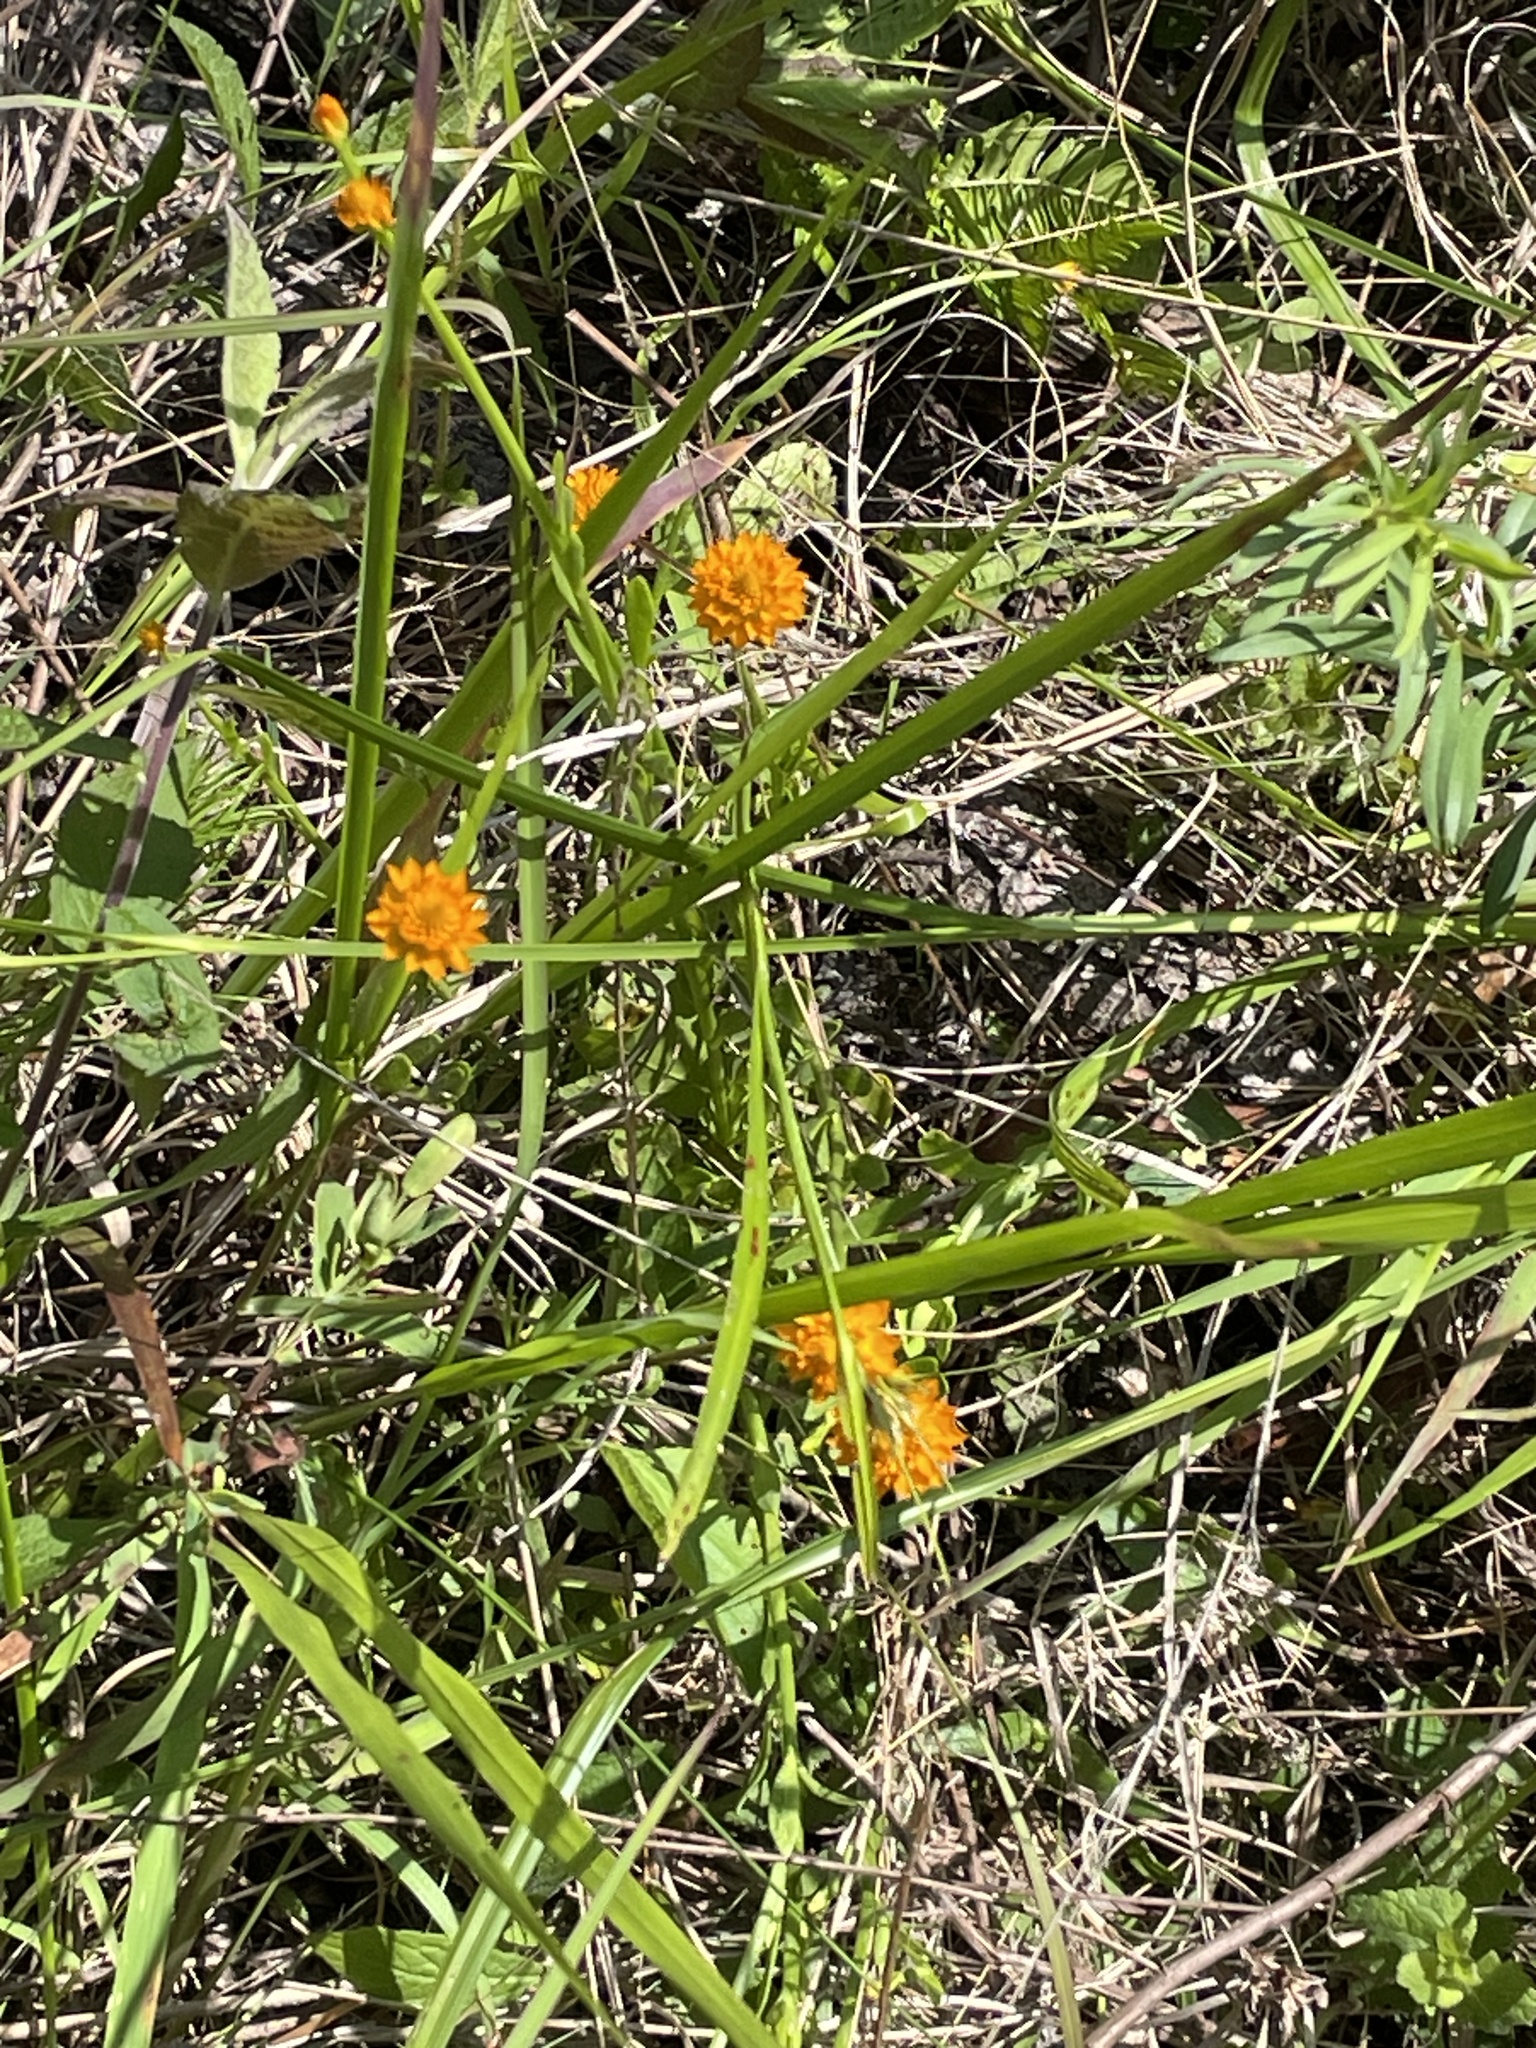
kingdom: Plantae
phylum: Tracheophyta
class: Magnoliopsida
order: Fabales
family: Polygalaceae
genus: Polygala
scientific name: Polygala lutea
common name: Orange milkwort
